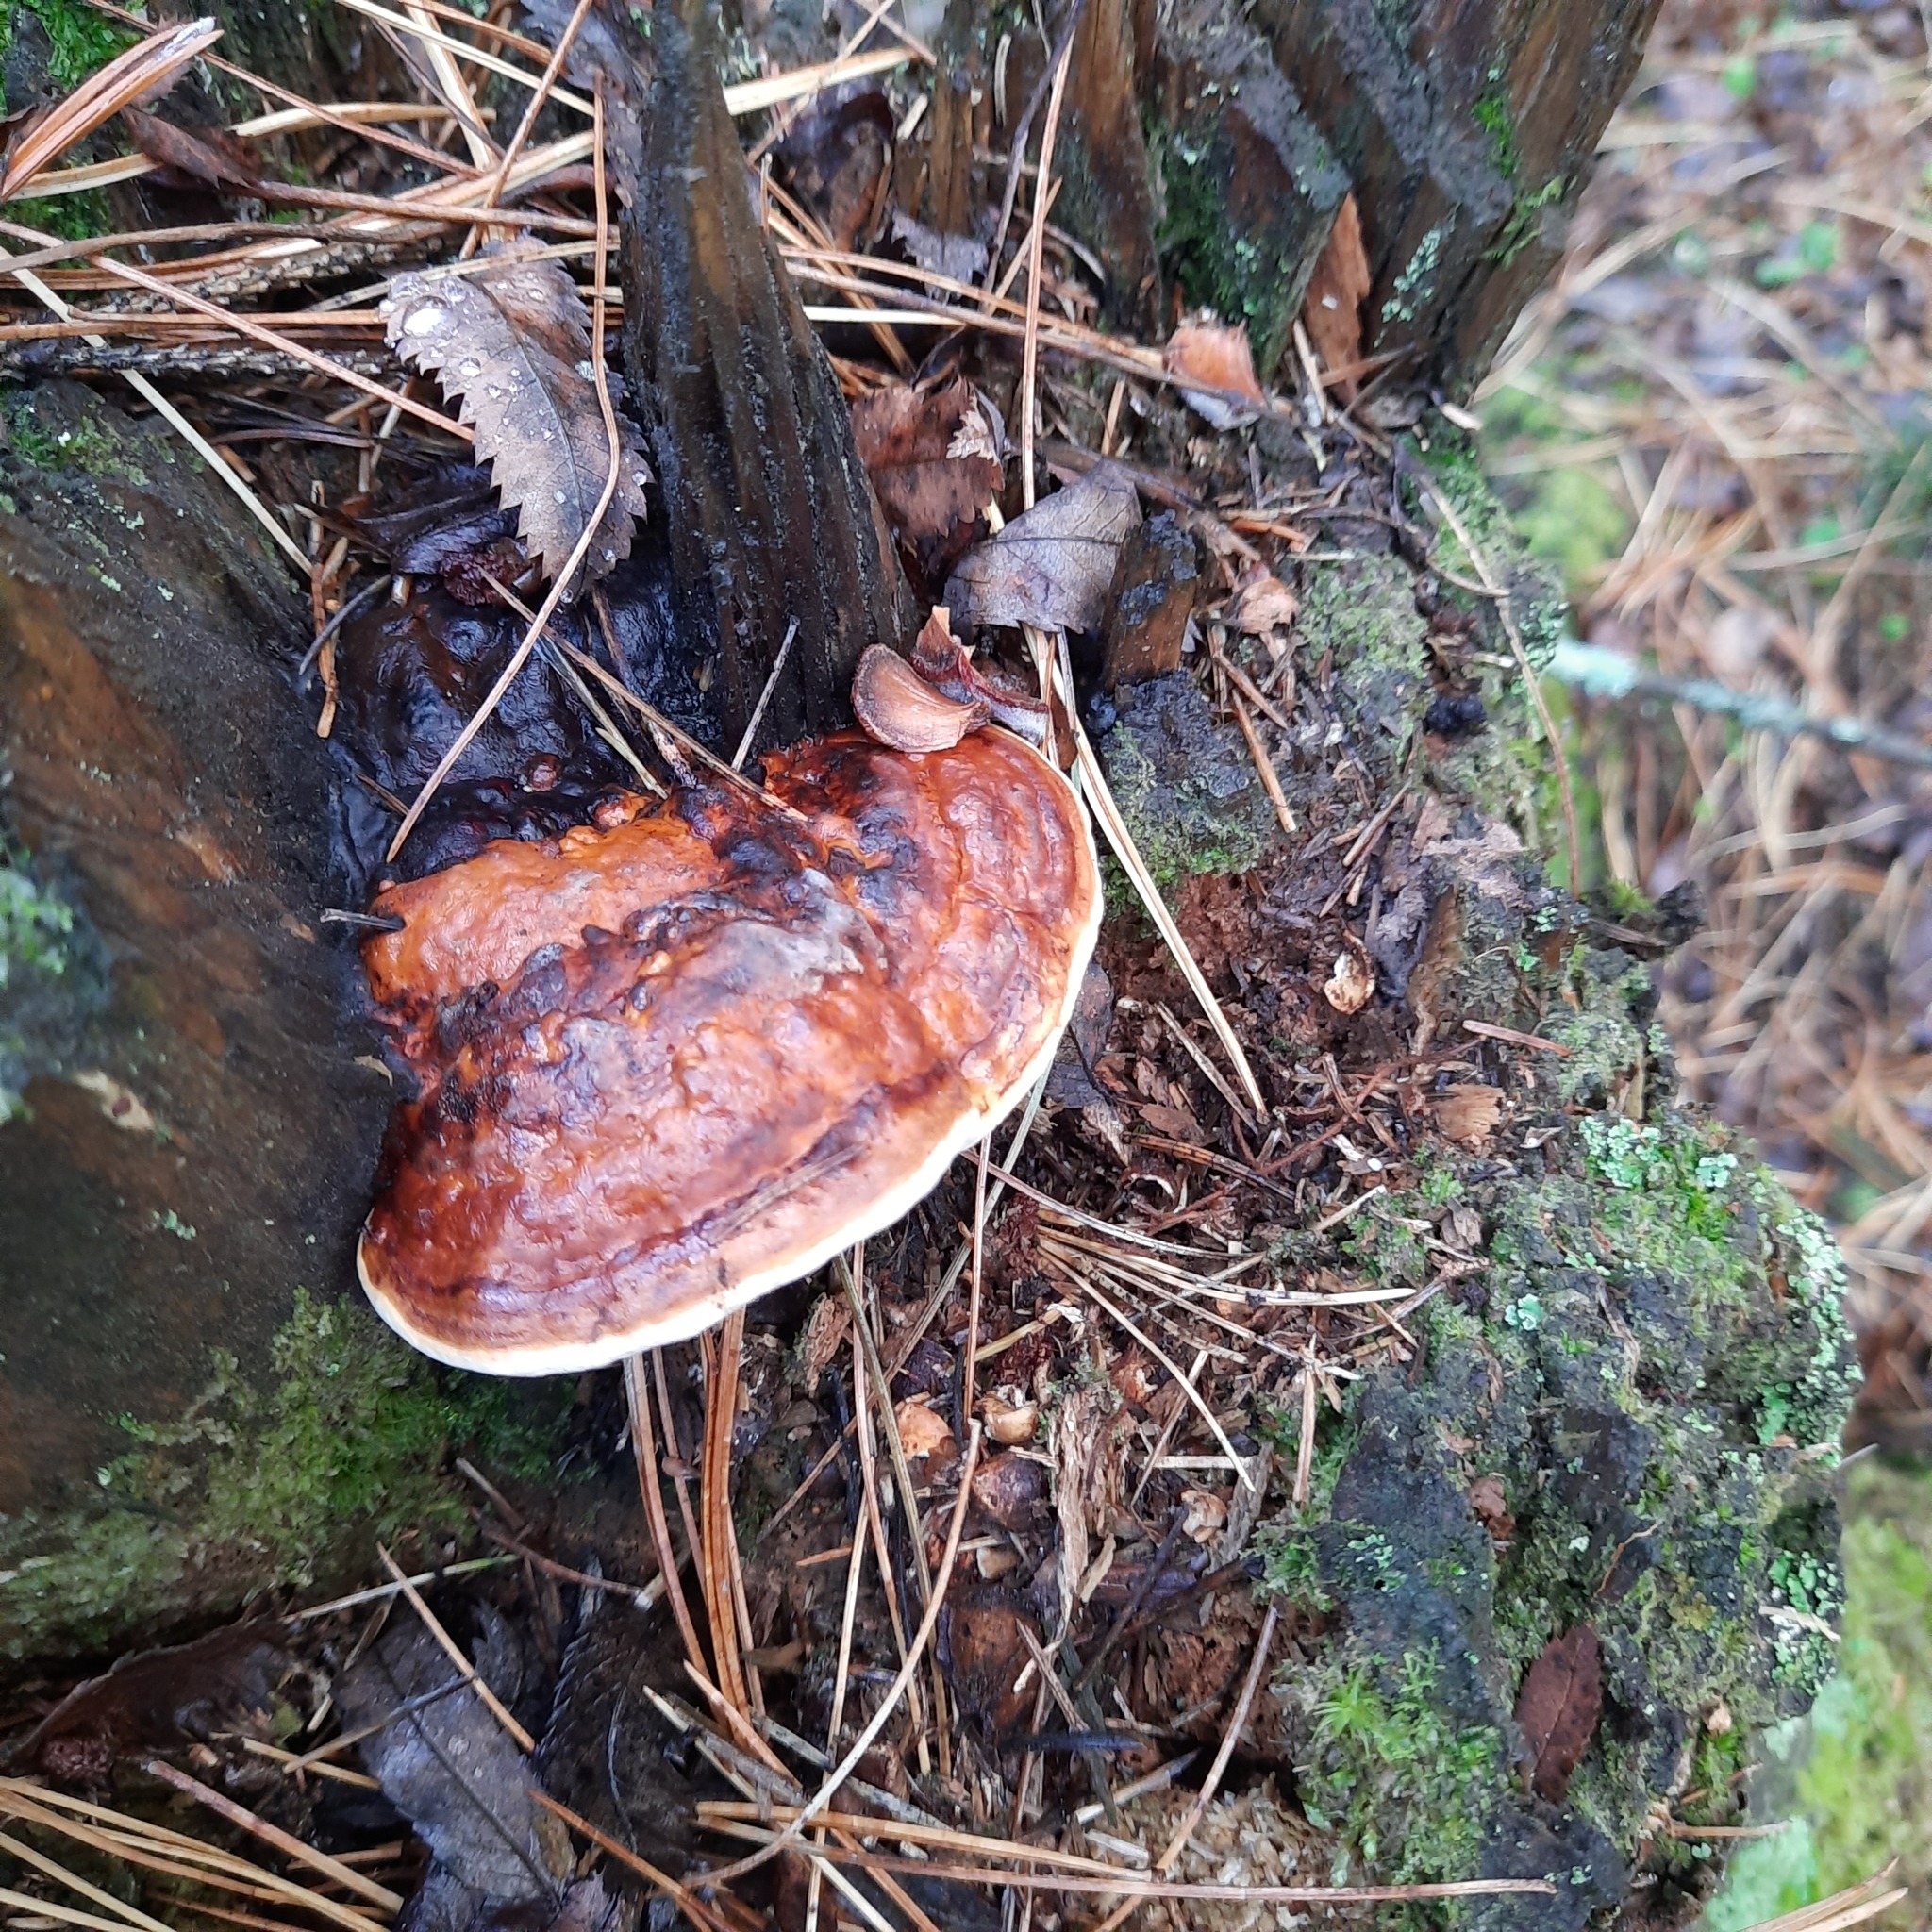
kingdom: Fungi
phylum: Basidiomycota
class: Agaricomycetes
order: Polyporales
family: Fomitopsidaceae
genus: Fomitopsis
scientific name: Fomitopsis pinicola
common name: Red-belted bracket
